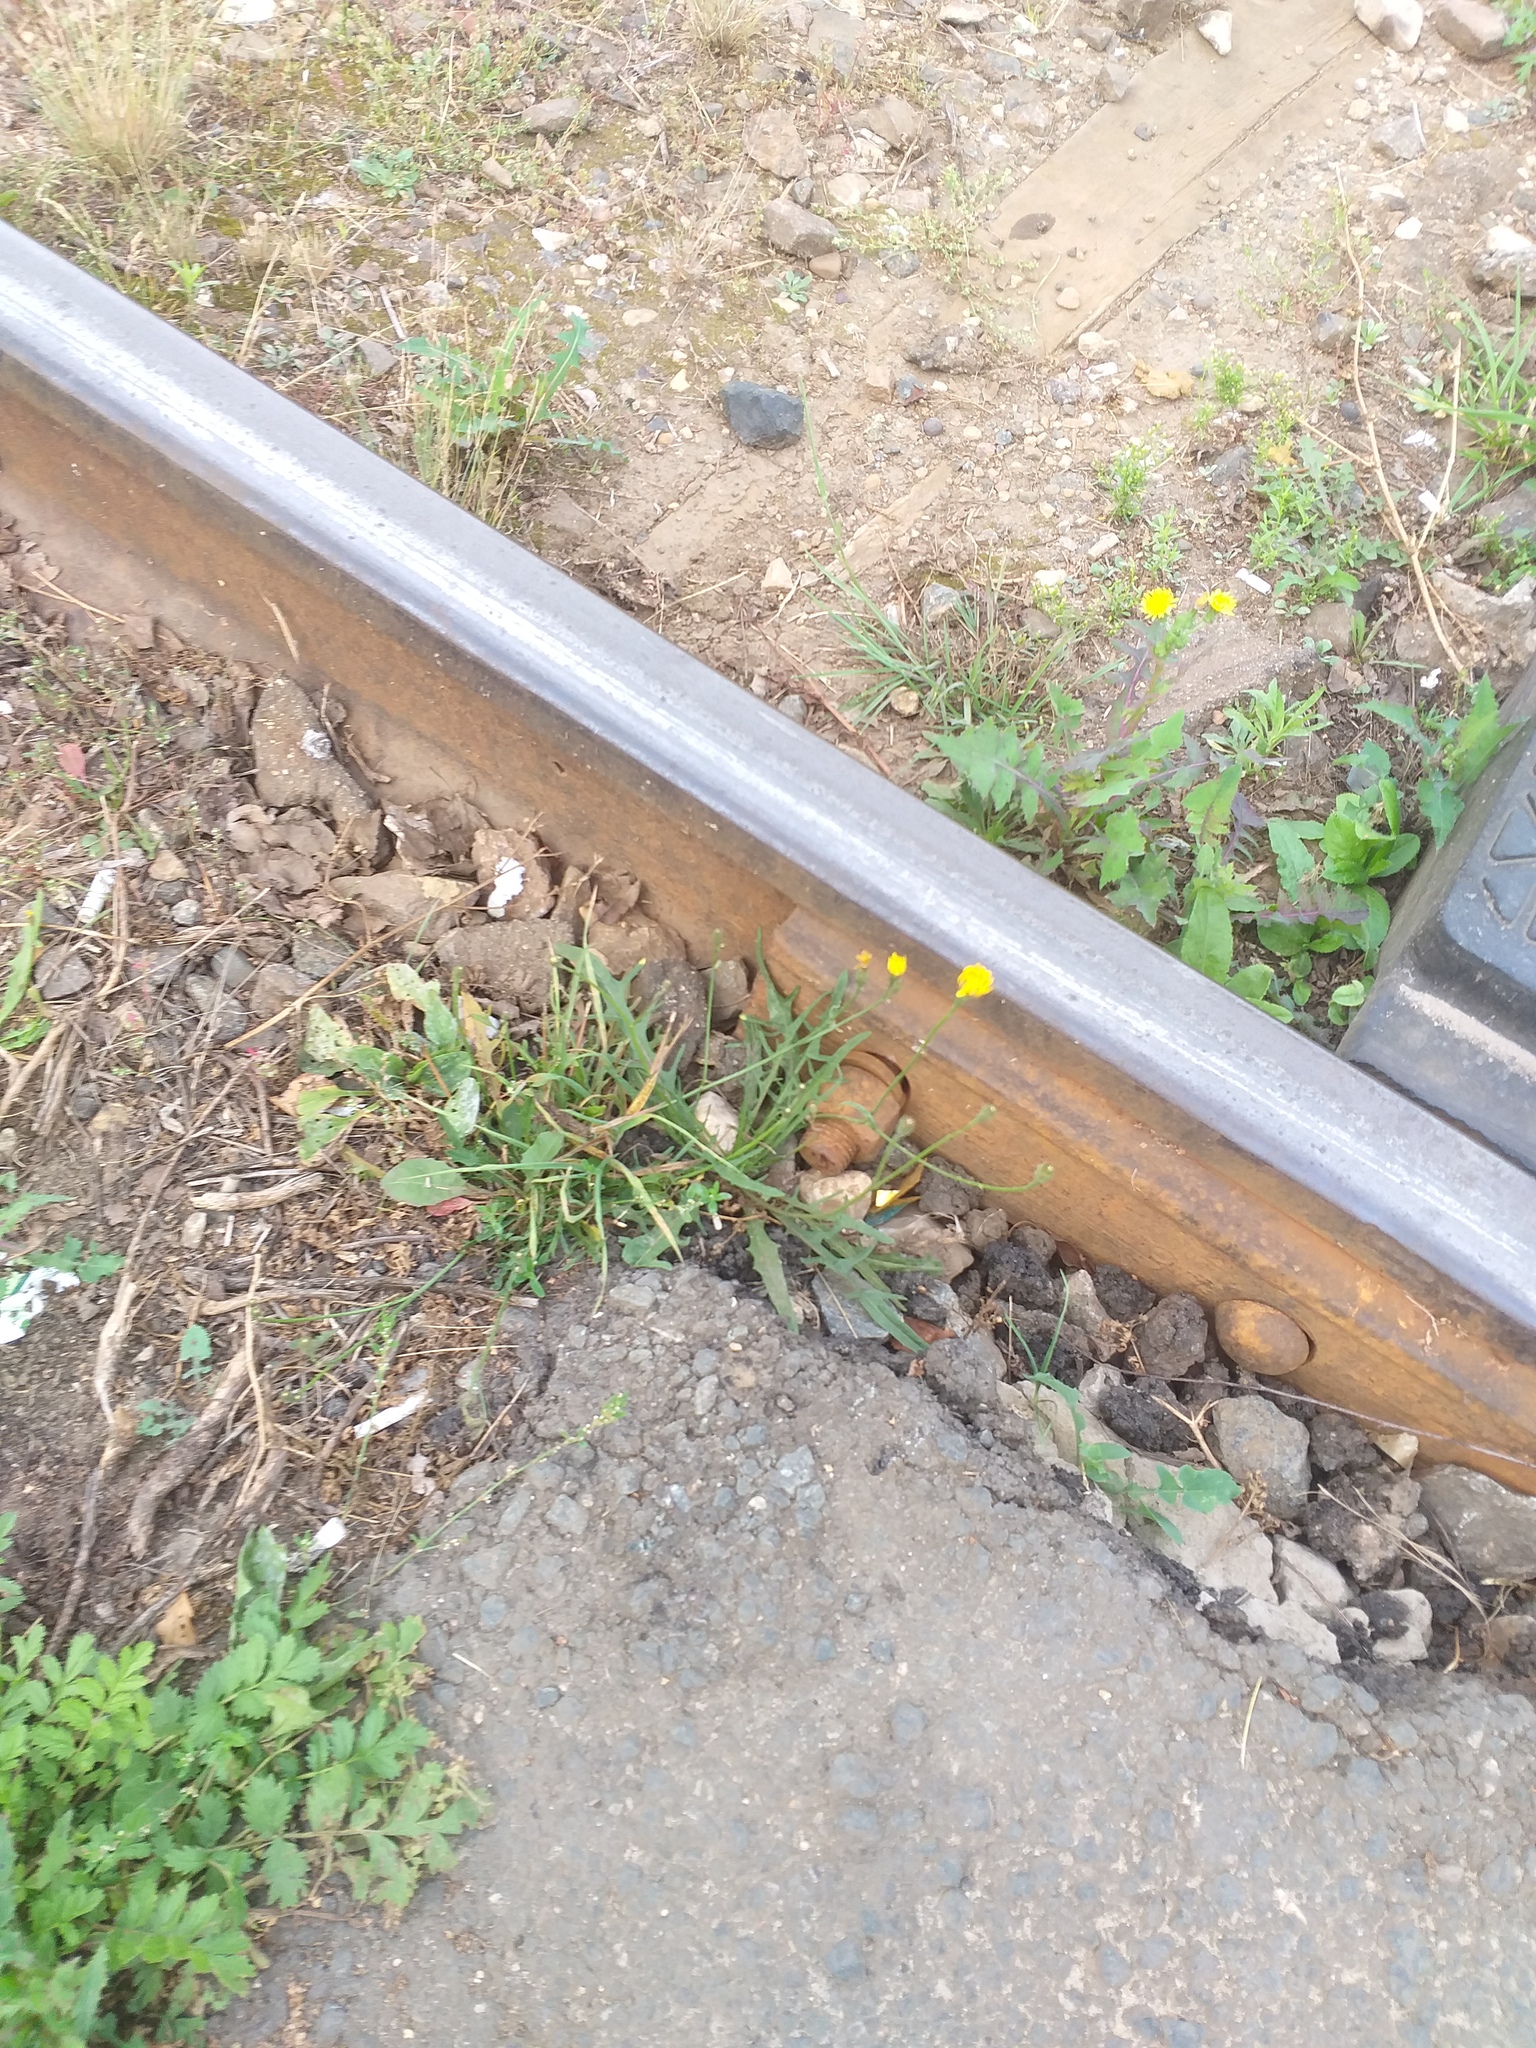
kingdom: Plantae
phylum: Tracheophyta
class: Magnoliopsida
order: Asterales
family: Asteraceae
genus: Scorzoneroides
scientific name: Scorzoneroides autumnalis
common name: Autumn hawkbit
